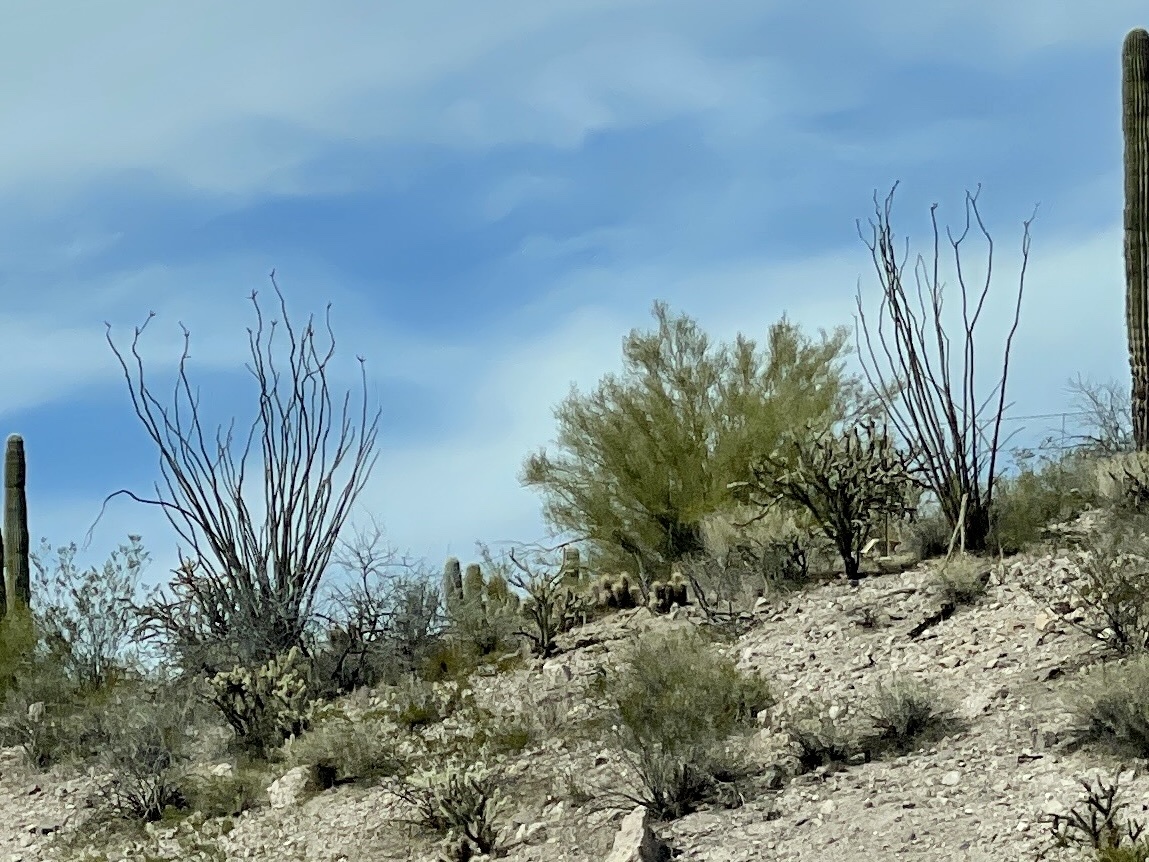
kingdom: Plantae
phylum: Tracheophyta
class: Magnoliopsida
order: Ericales
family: Fouquieriaceae
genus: Fouquieria
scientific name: Fouquieria splendens
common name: Vine-cactus
